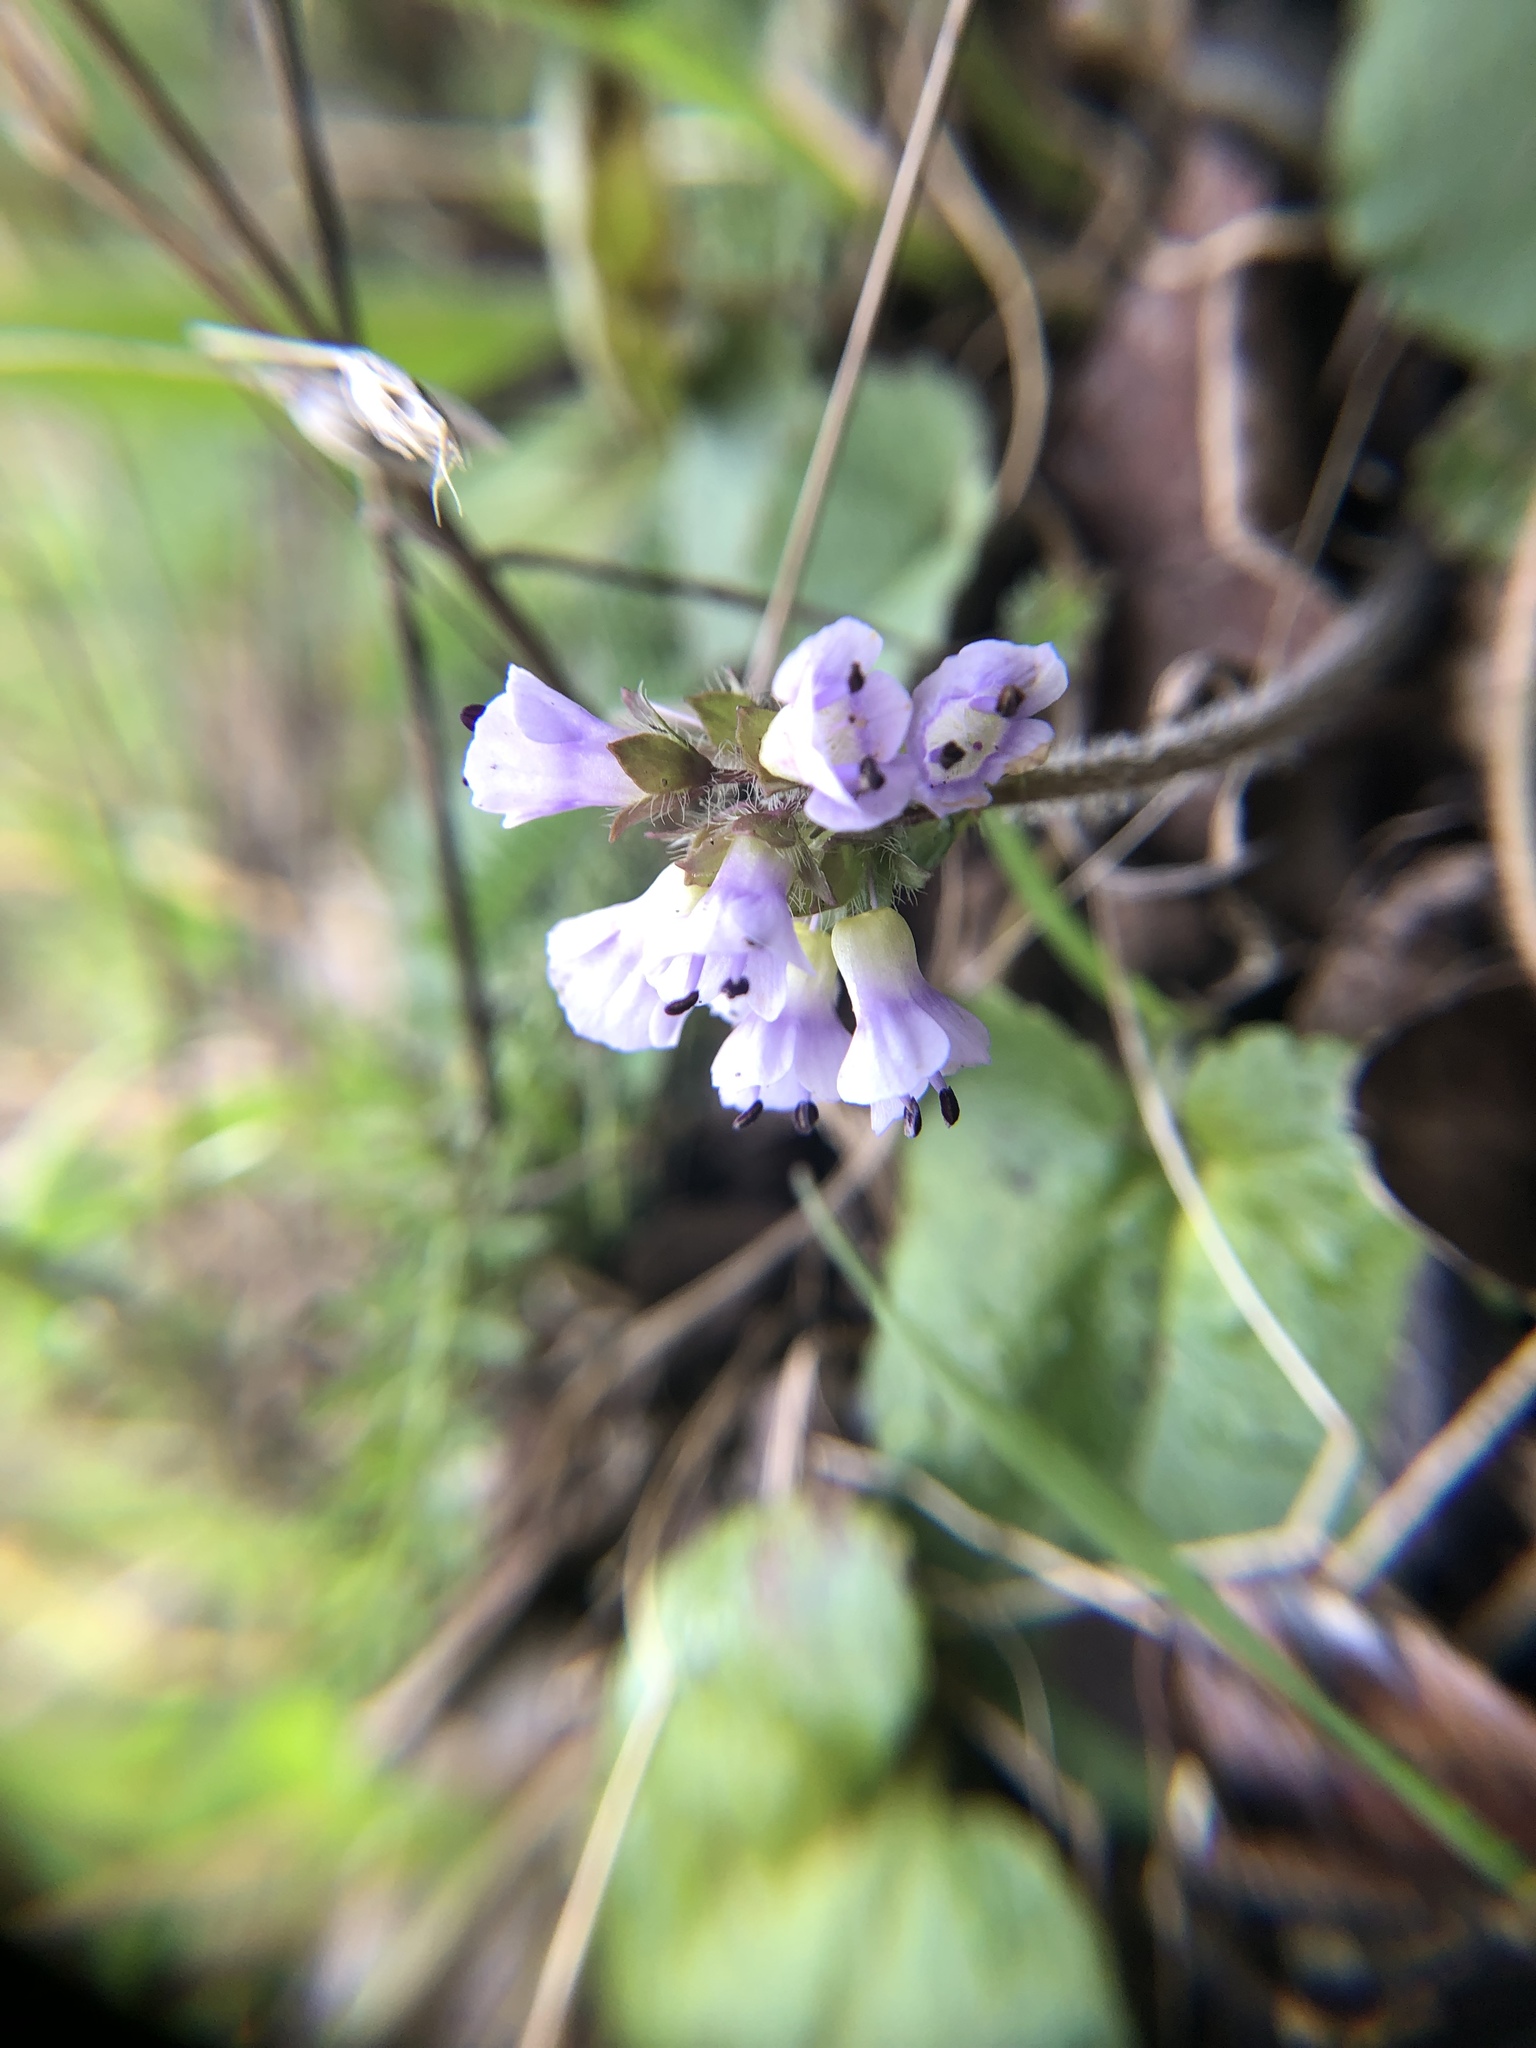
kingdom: Plantae
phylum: Tracheophyta
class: Magnoliopsida
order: Lamiales
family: Plantaginaceae
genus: Synthyris
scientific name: Synthyris reniformis
